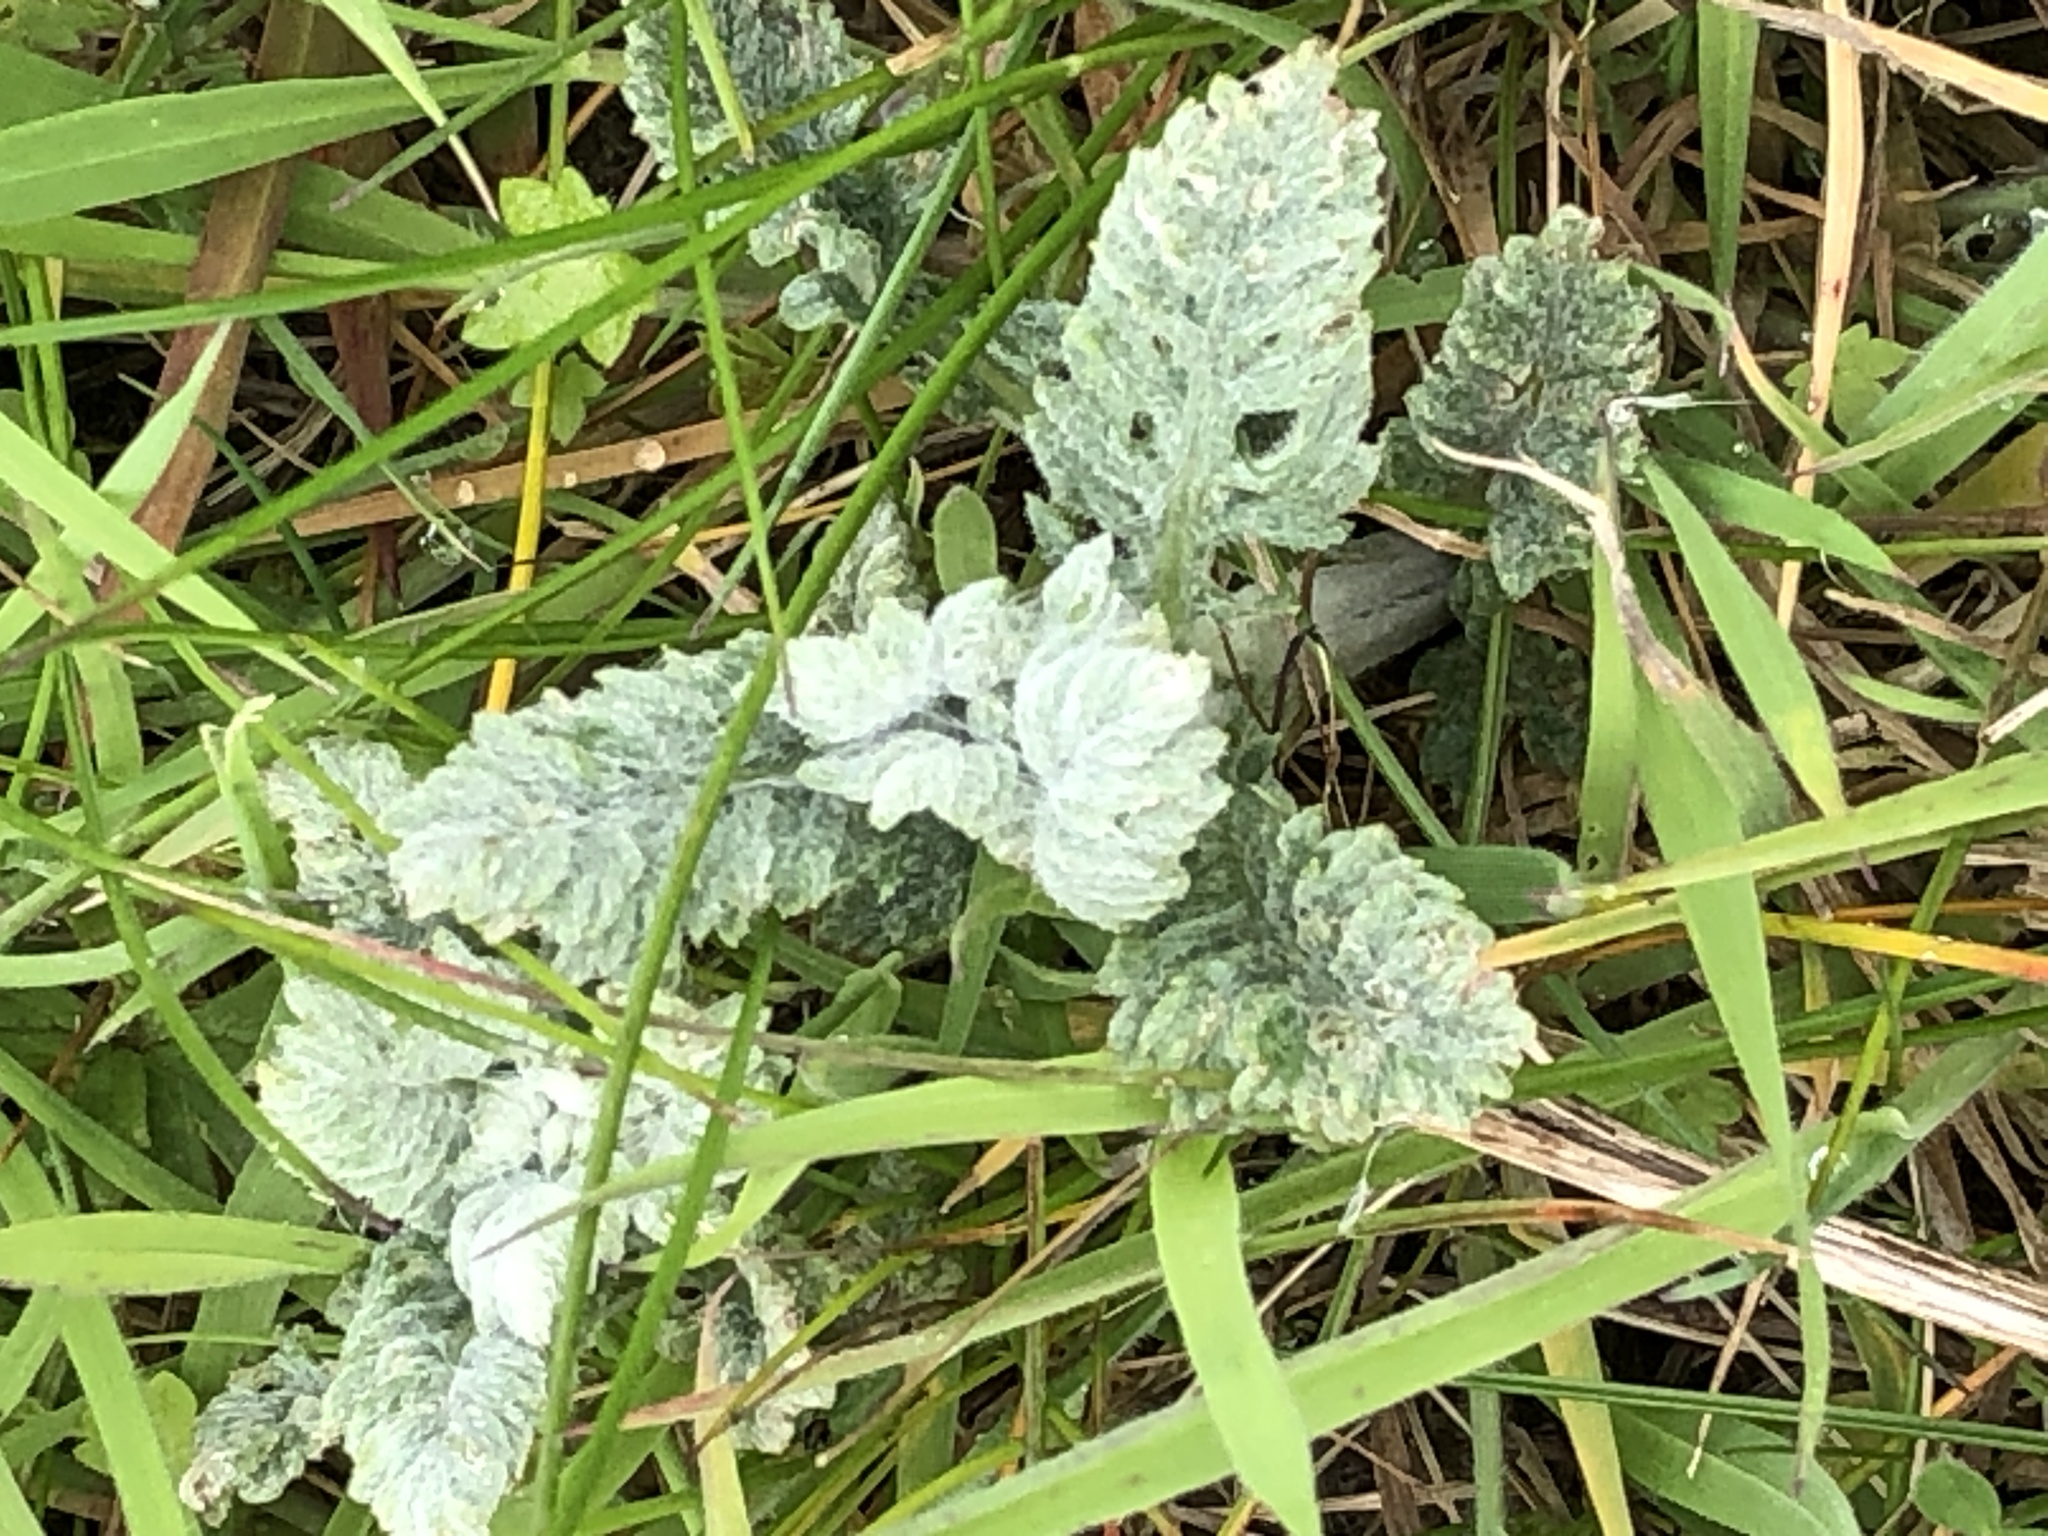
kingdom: Plantae
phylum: Tracheophyta
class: Magnoliopsida
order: Asterales
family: Asteraceae
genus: Jacobaea
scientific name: Jacobaea erucifolia
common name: Hoary ragwort
